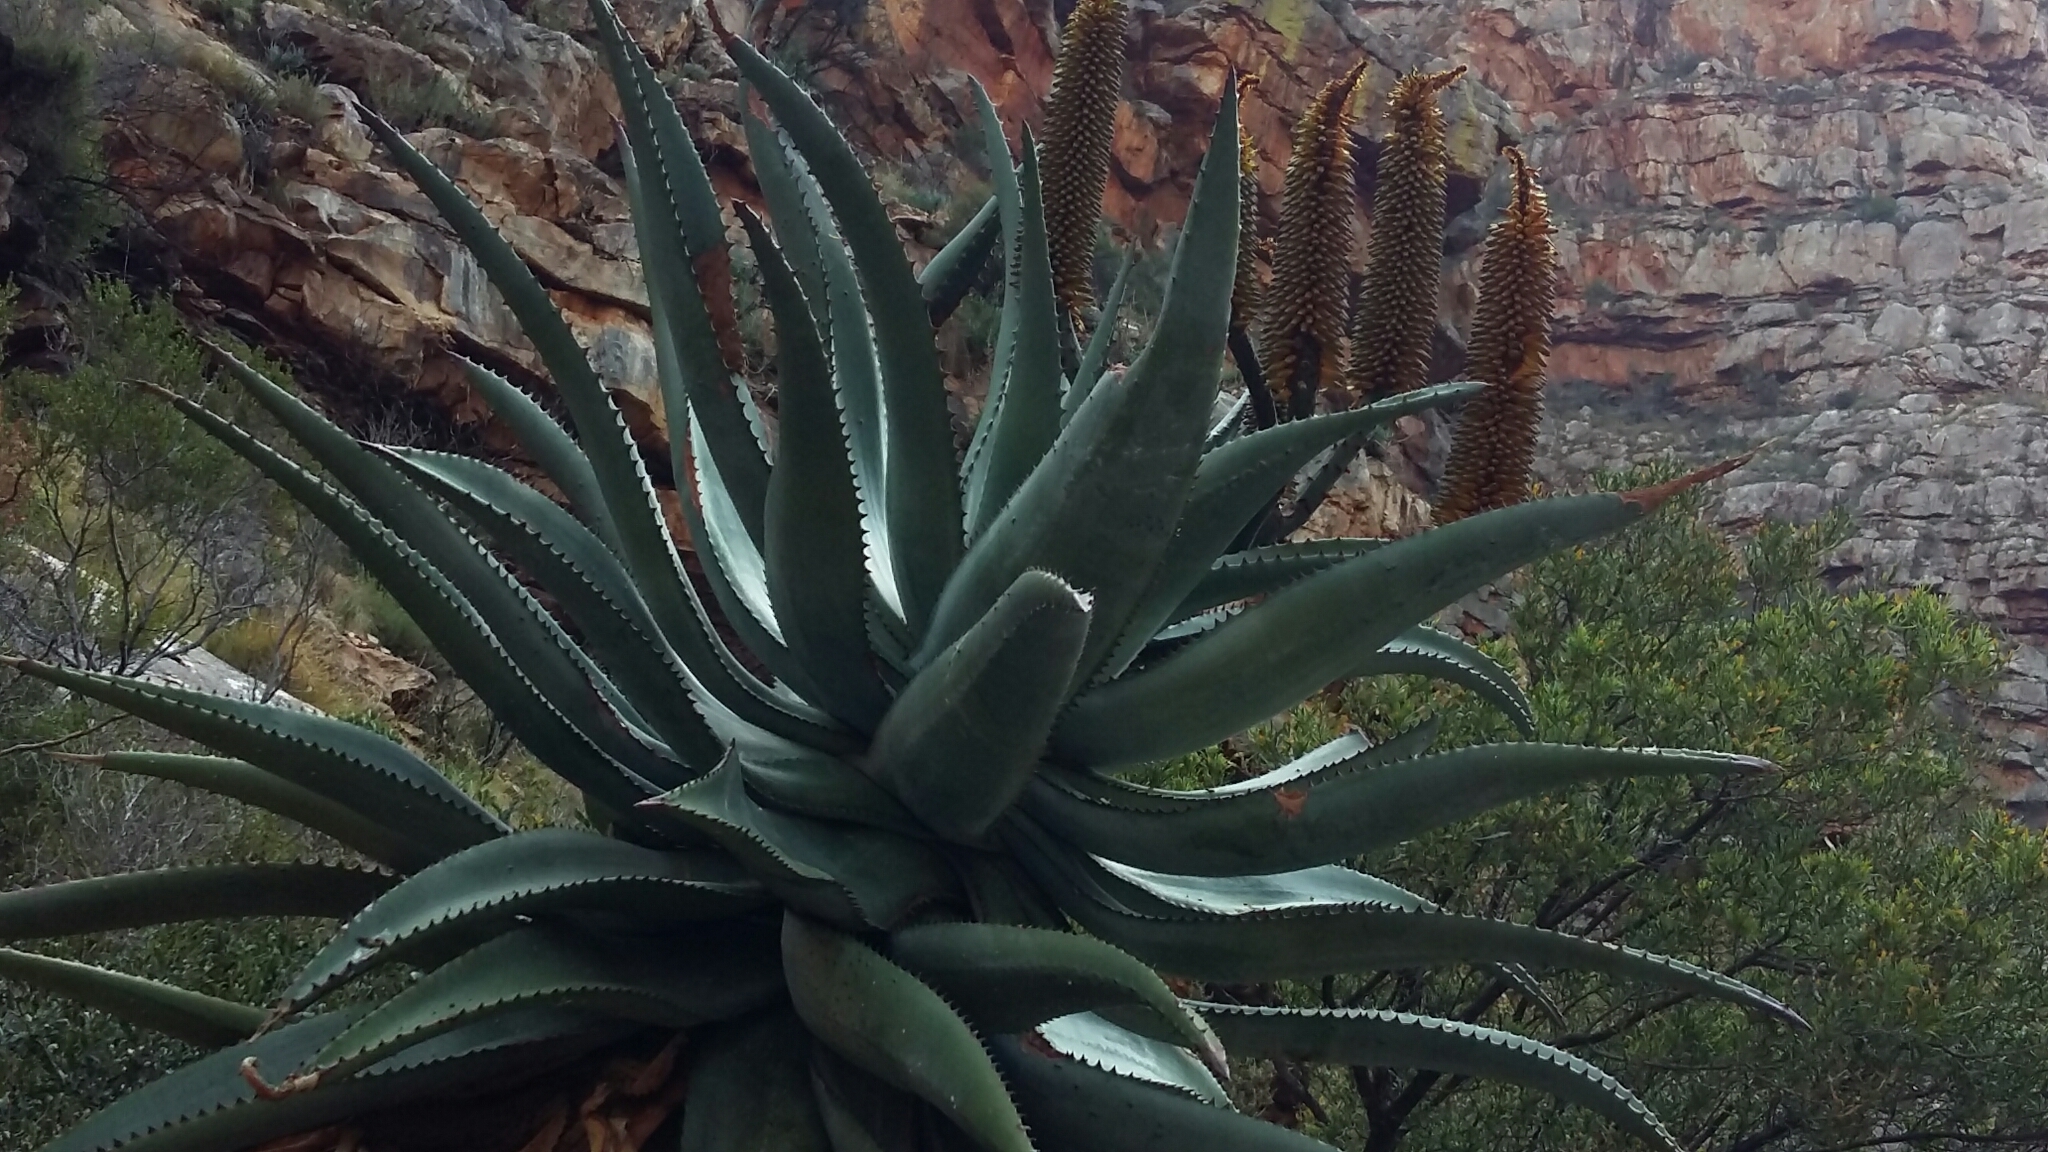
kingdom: Plantae
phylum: Tracheophyta
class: Liliopsida
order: Asparagales
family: Asphodelaceae
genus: Aloe
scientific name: Aloe ferox
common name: Bitter aloe
